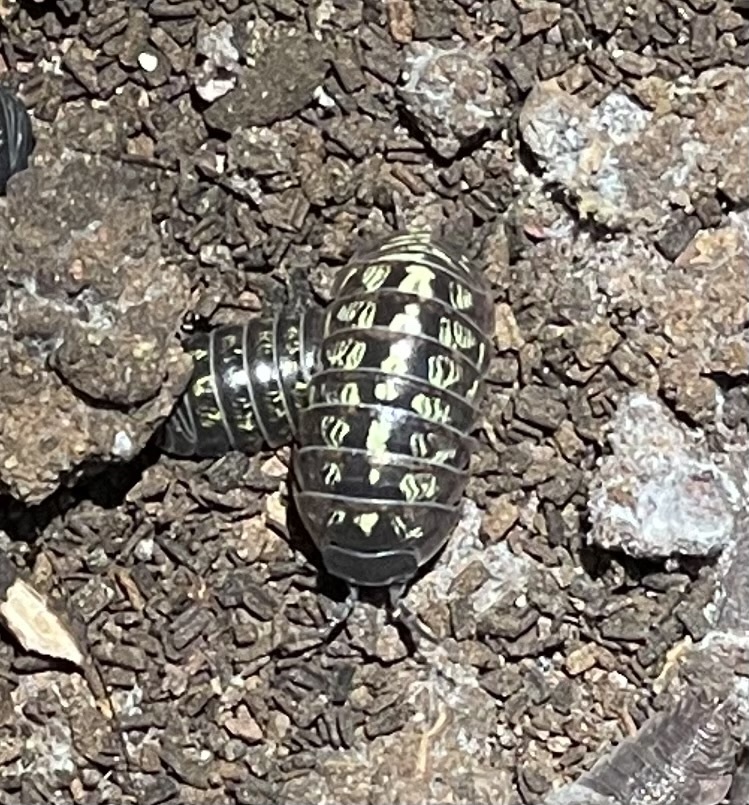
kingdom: Animalia
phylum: Arthropoda
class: Malacostraca
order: Isopoda
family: Armadillidiidae
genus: Armadillidium
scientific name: Armadillidium vulgare
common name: Common pill woodlouse
